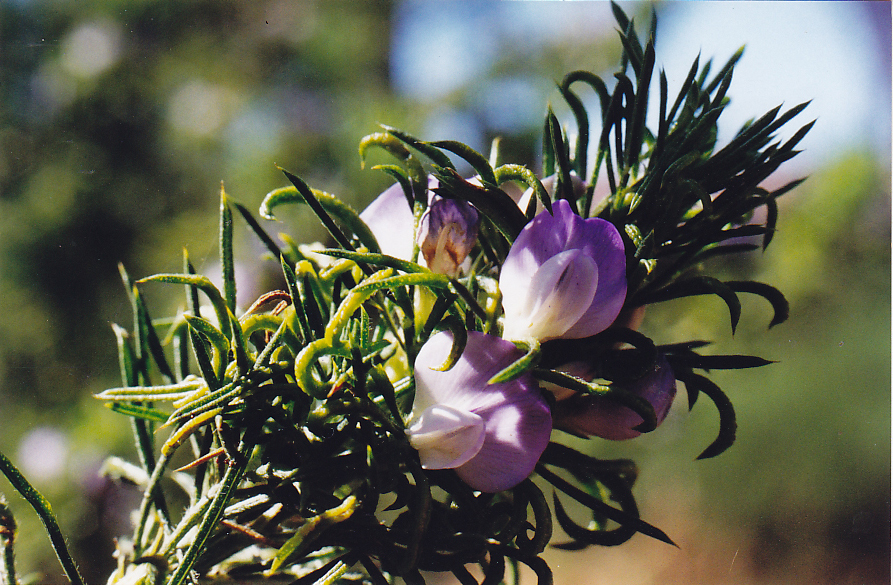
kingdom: Plantae
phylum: Tracheophyta
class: Magnoliopsida
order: Fabales
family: Fabaceae
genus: Psoralea
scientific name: Psoralea pinnata
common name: African scurfpea
